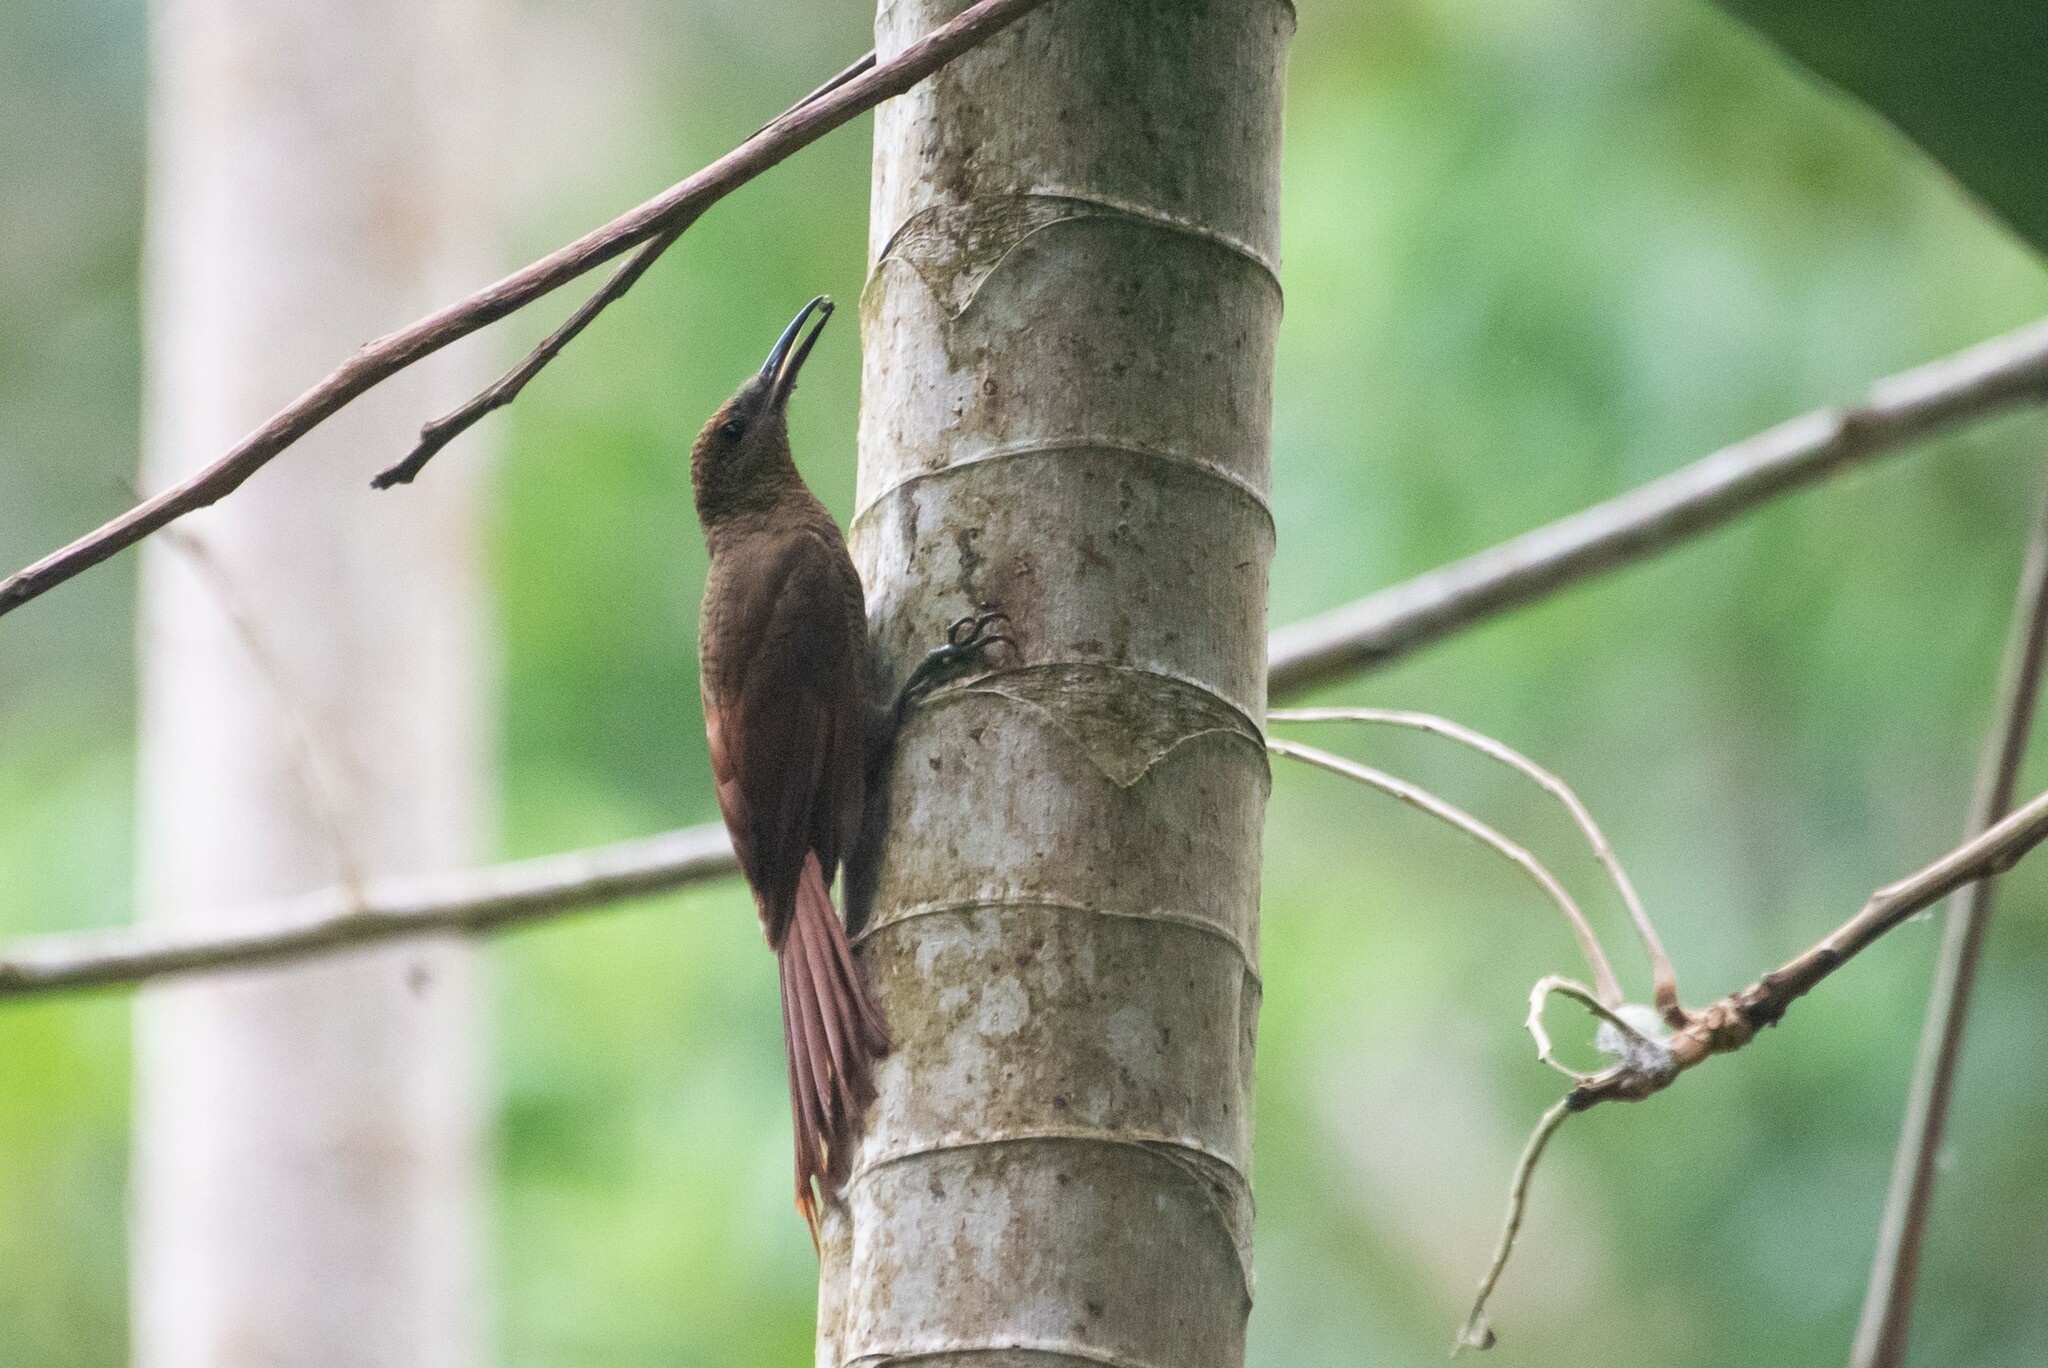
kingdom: Animalia
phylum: Chordata
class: Aves
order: Passeriformes
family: Furnariidae
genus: Dendrocolaptes
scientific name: Dendrocolaptes sanctithomae
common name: Northern barred-woodcreeper
